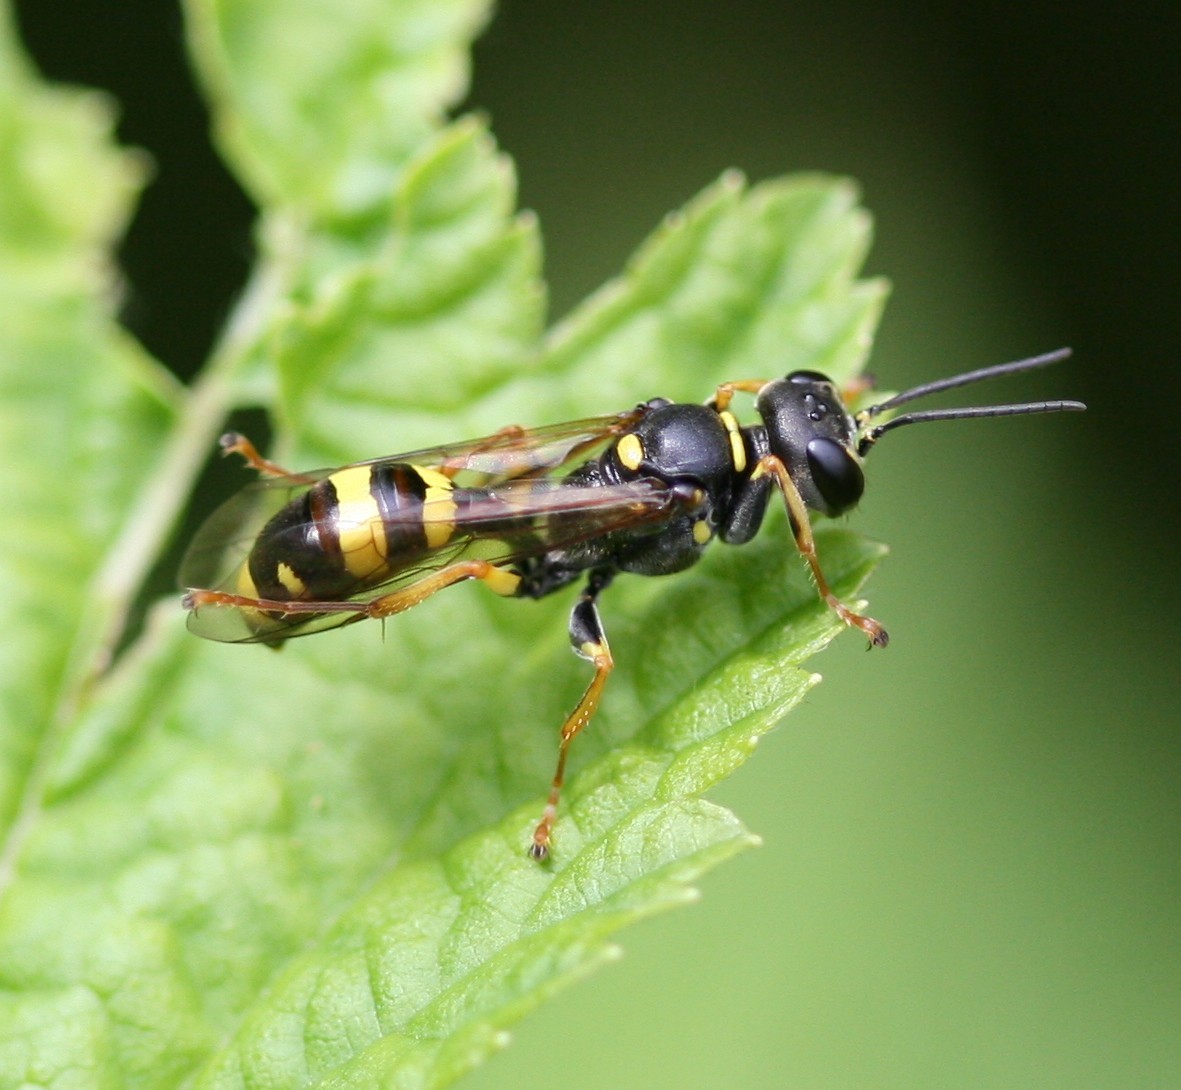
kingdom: Animalia
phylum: Arthropoda
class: Insecta
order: Hymenoptera
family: Crabronidae
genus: Mellinus
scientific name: Mellinus arvensis
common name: Field digger wasp
